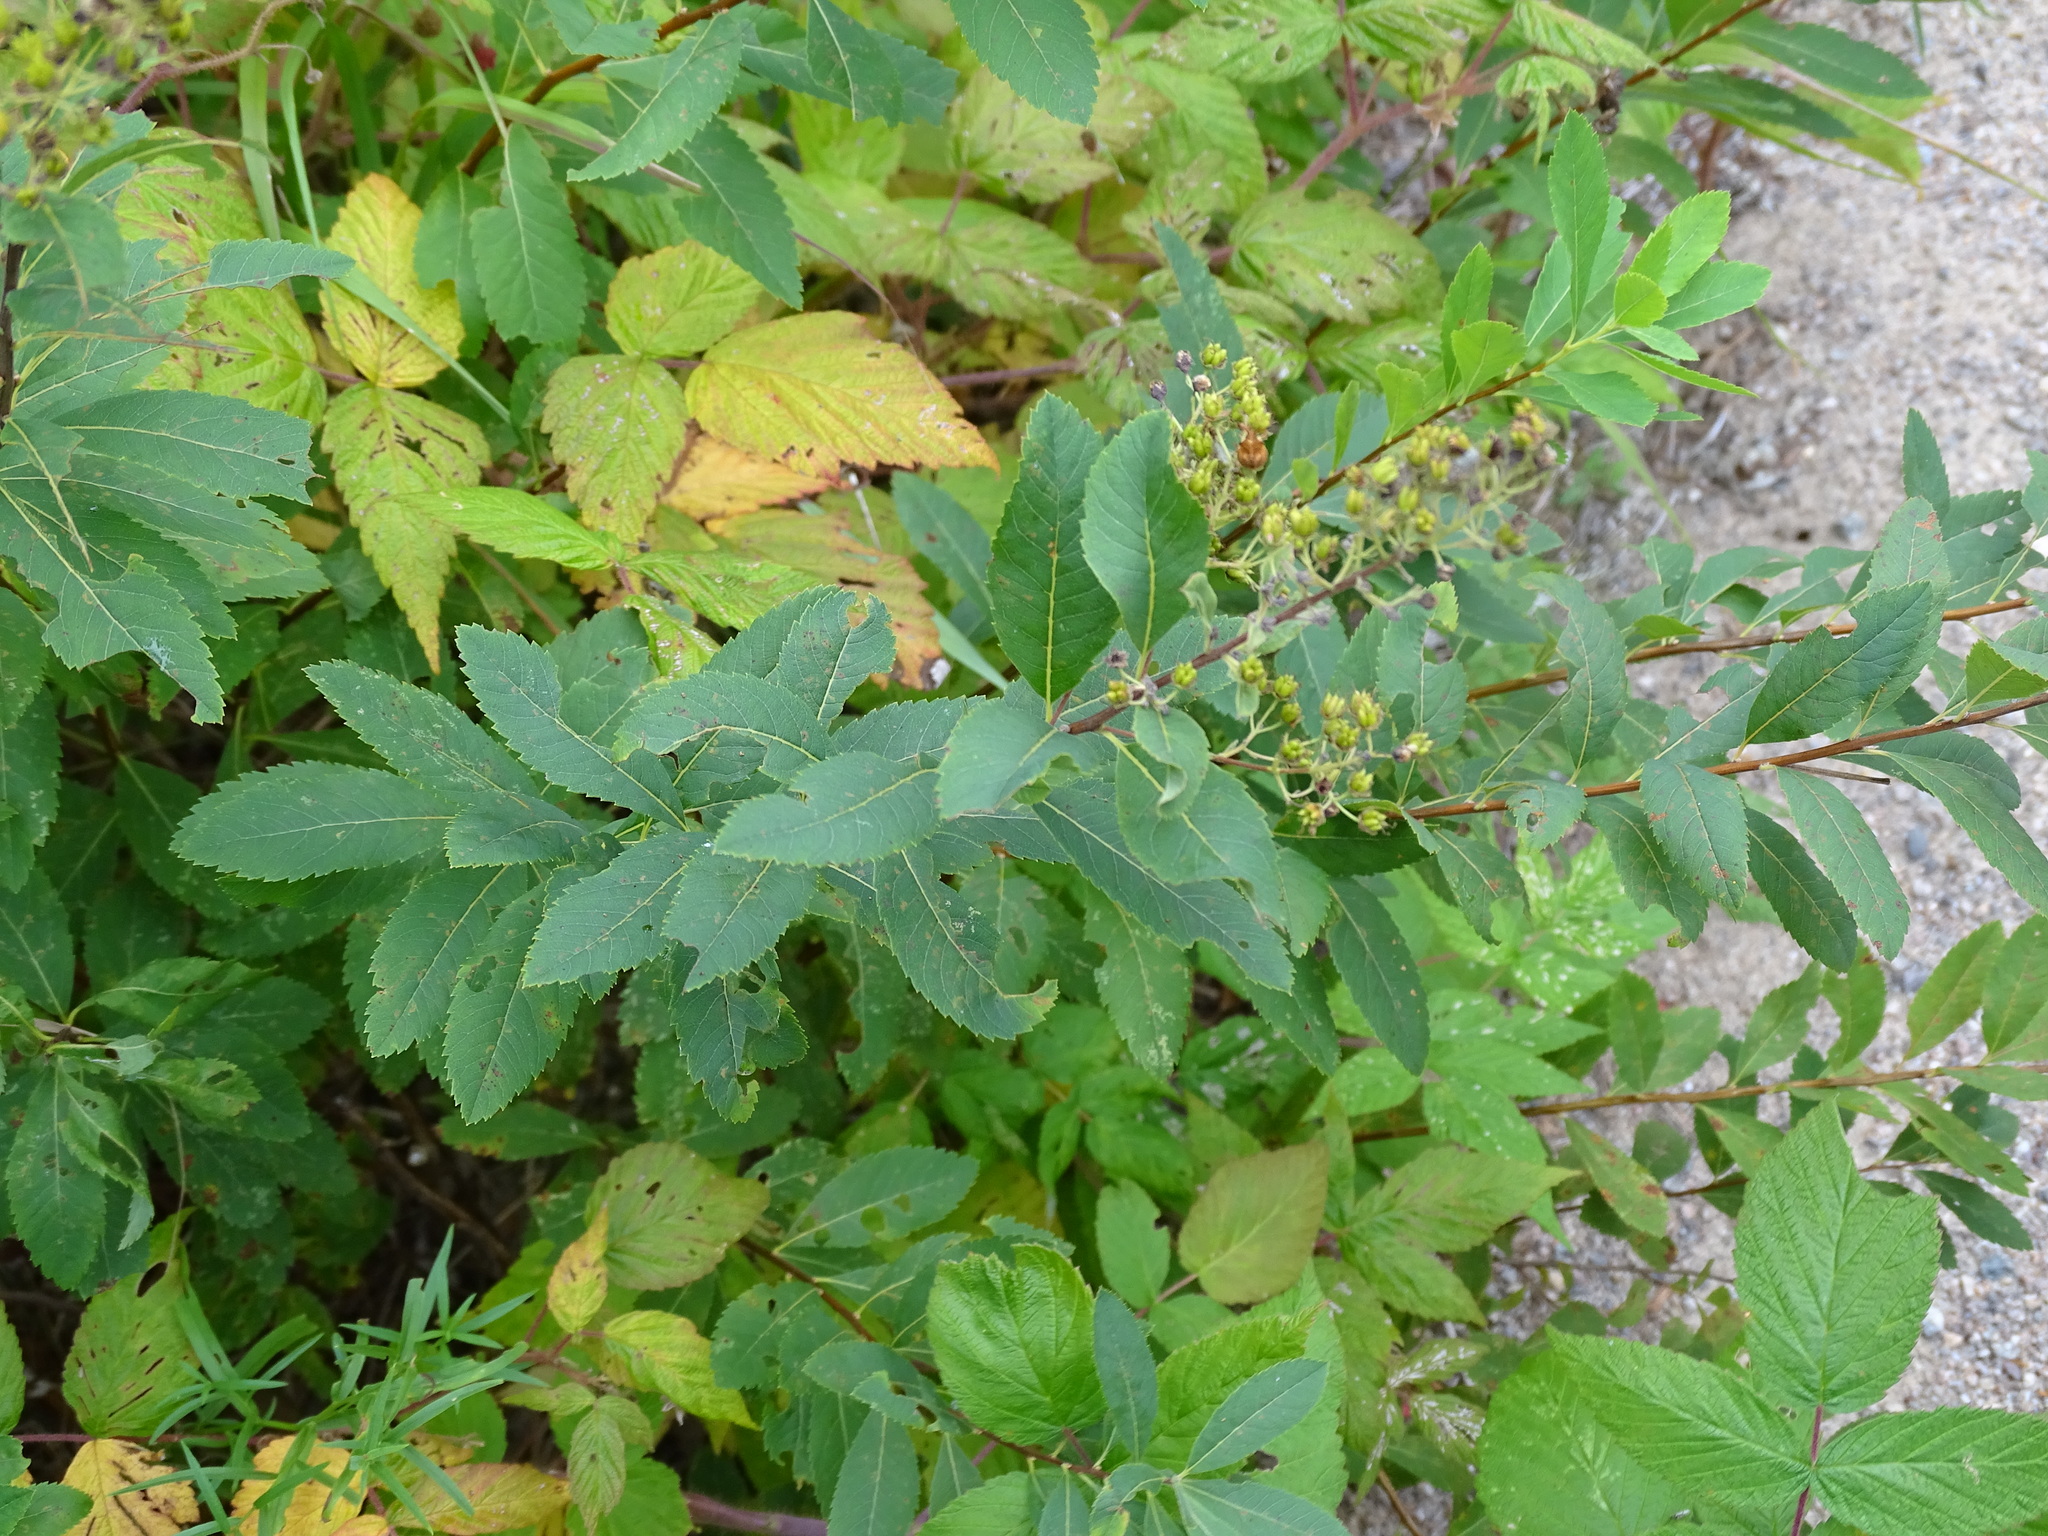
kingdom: Plantae
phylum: Tracheophyta
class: Magnoliopsida
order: Rosales
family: Rosaceae
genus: Spiraea
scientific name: Spiraea alba
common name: Pale bridewort
